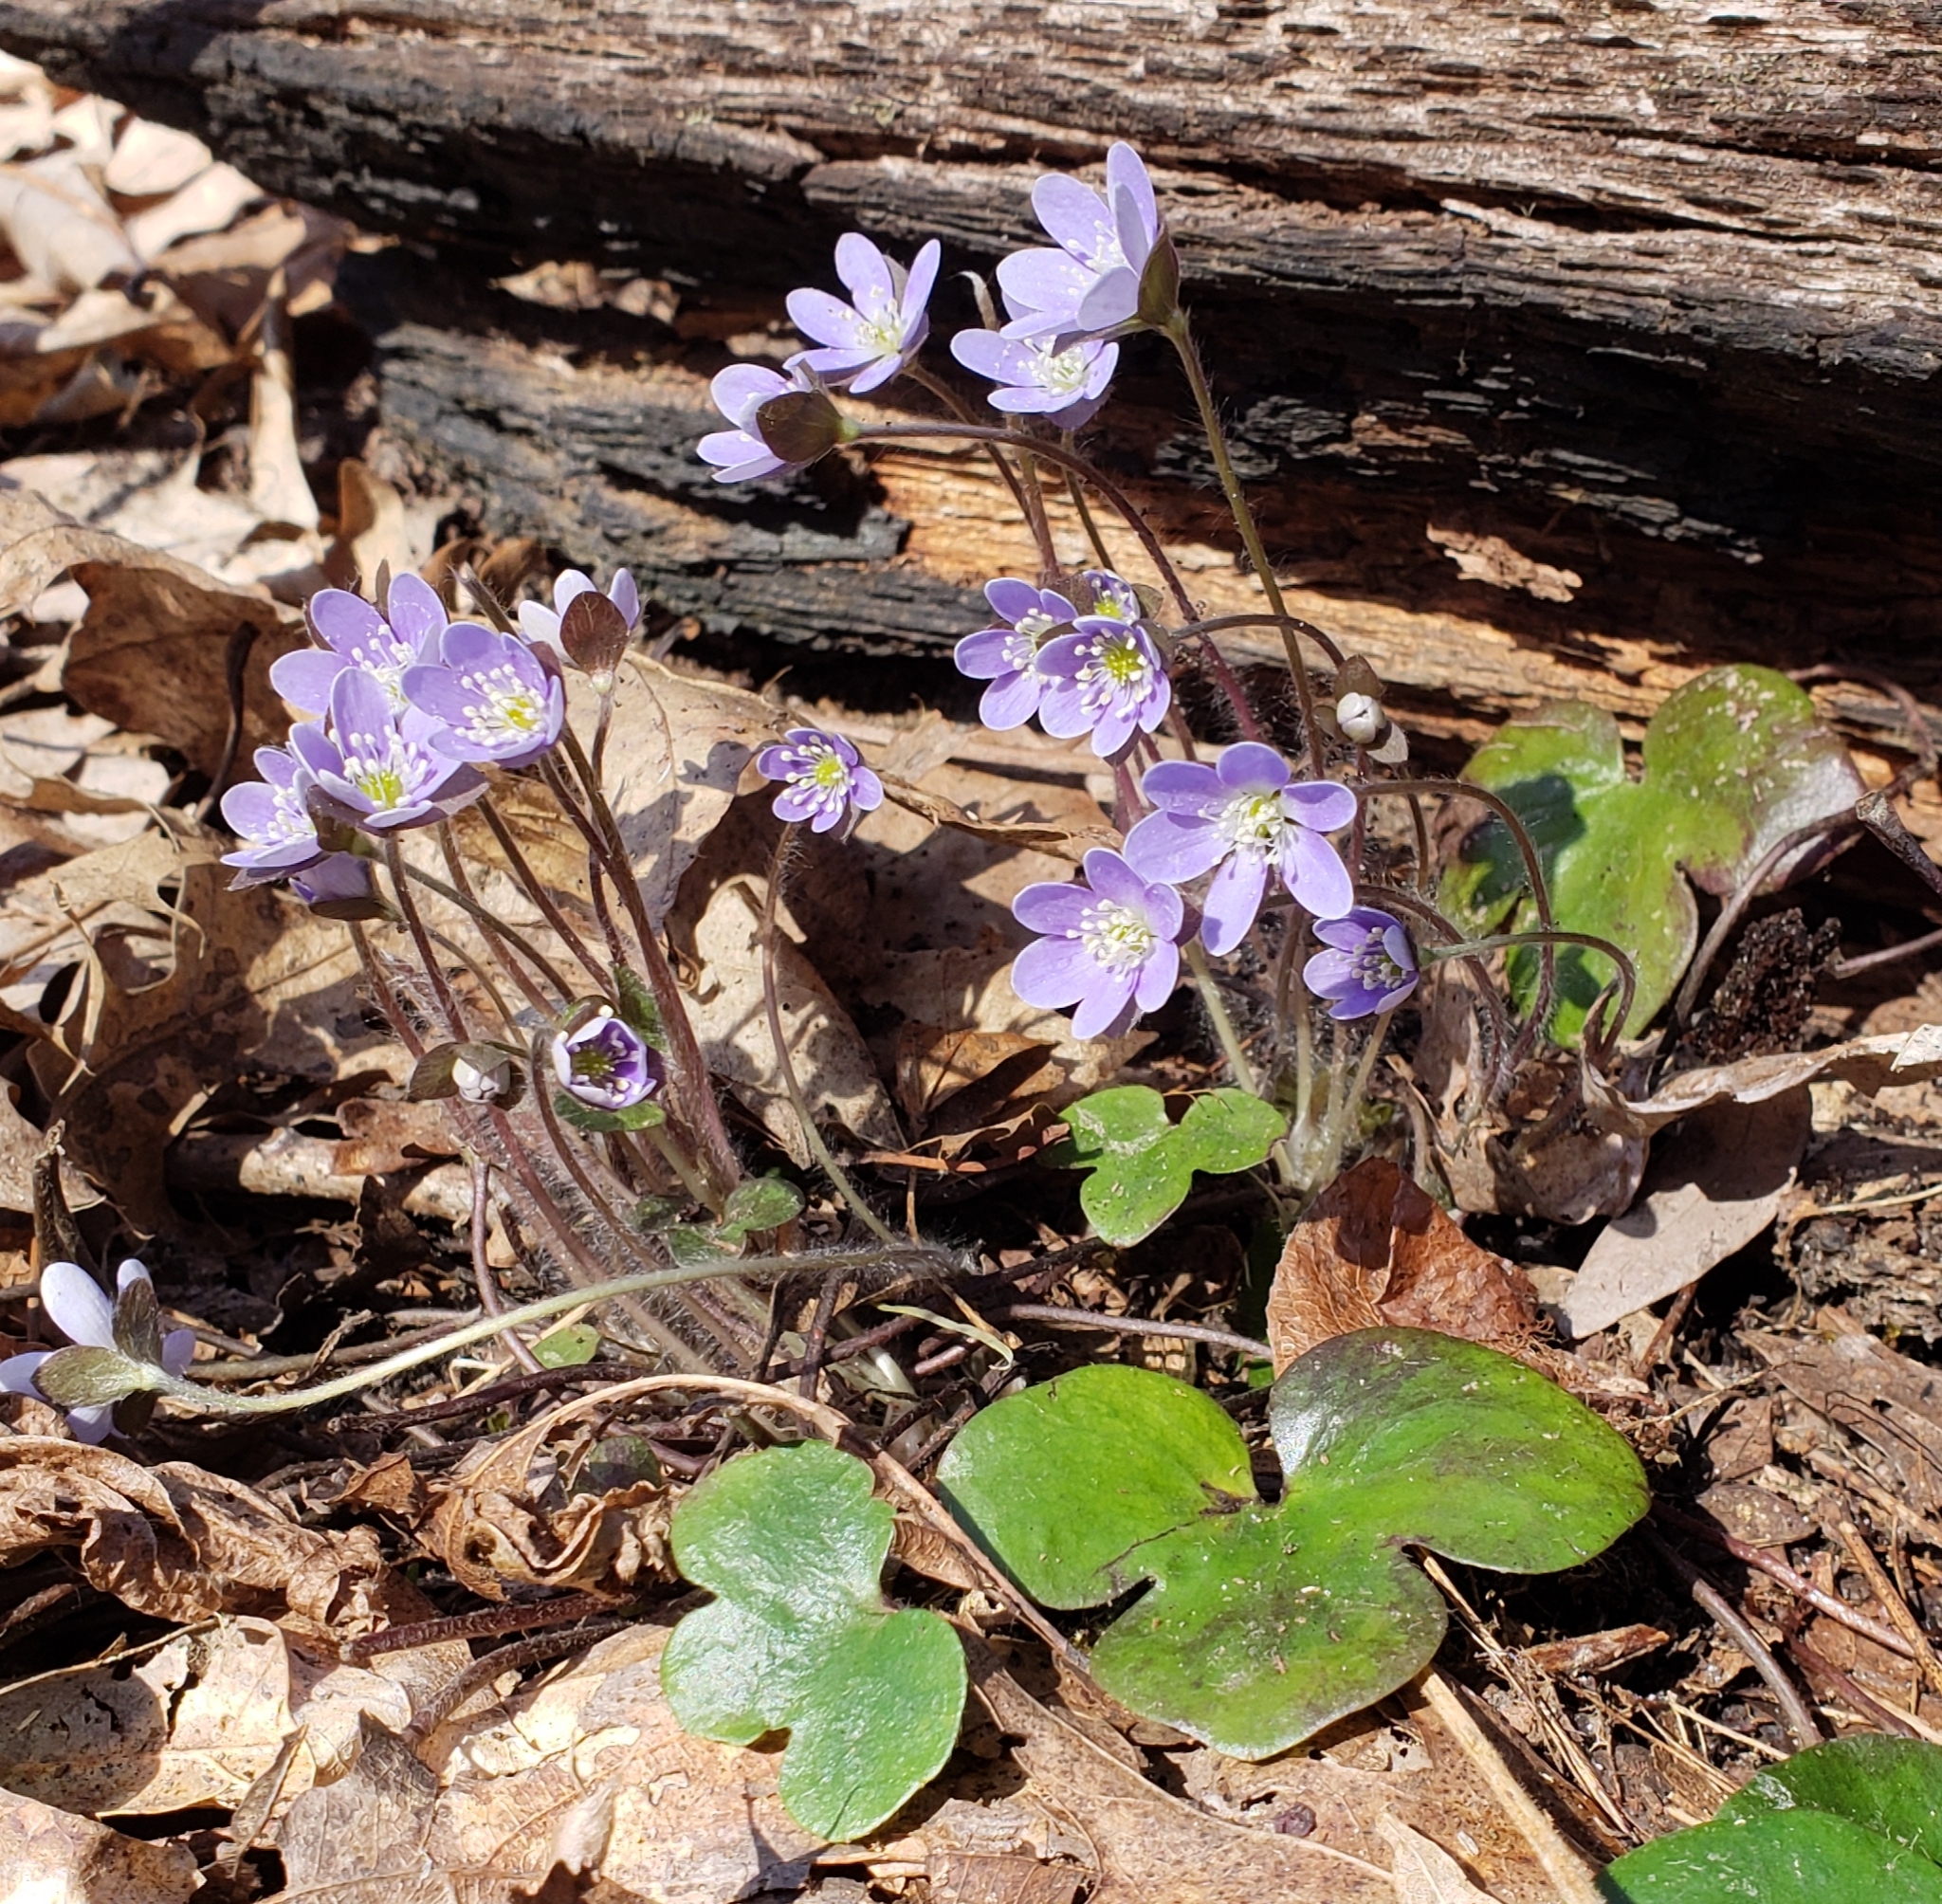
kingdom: Plantae
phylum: Tracheophyta
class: Magnoliopsida
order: Ranunculales
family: Ranunculaceae
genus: Hepatica
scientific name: Hepatica americana
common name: American hepatica
